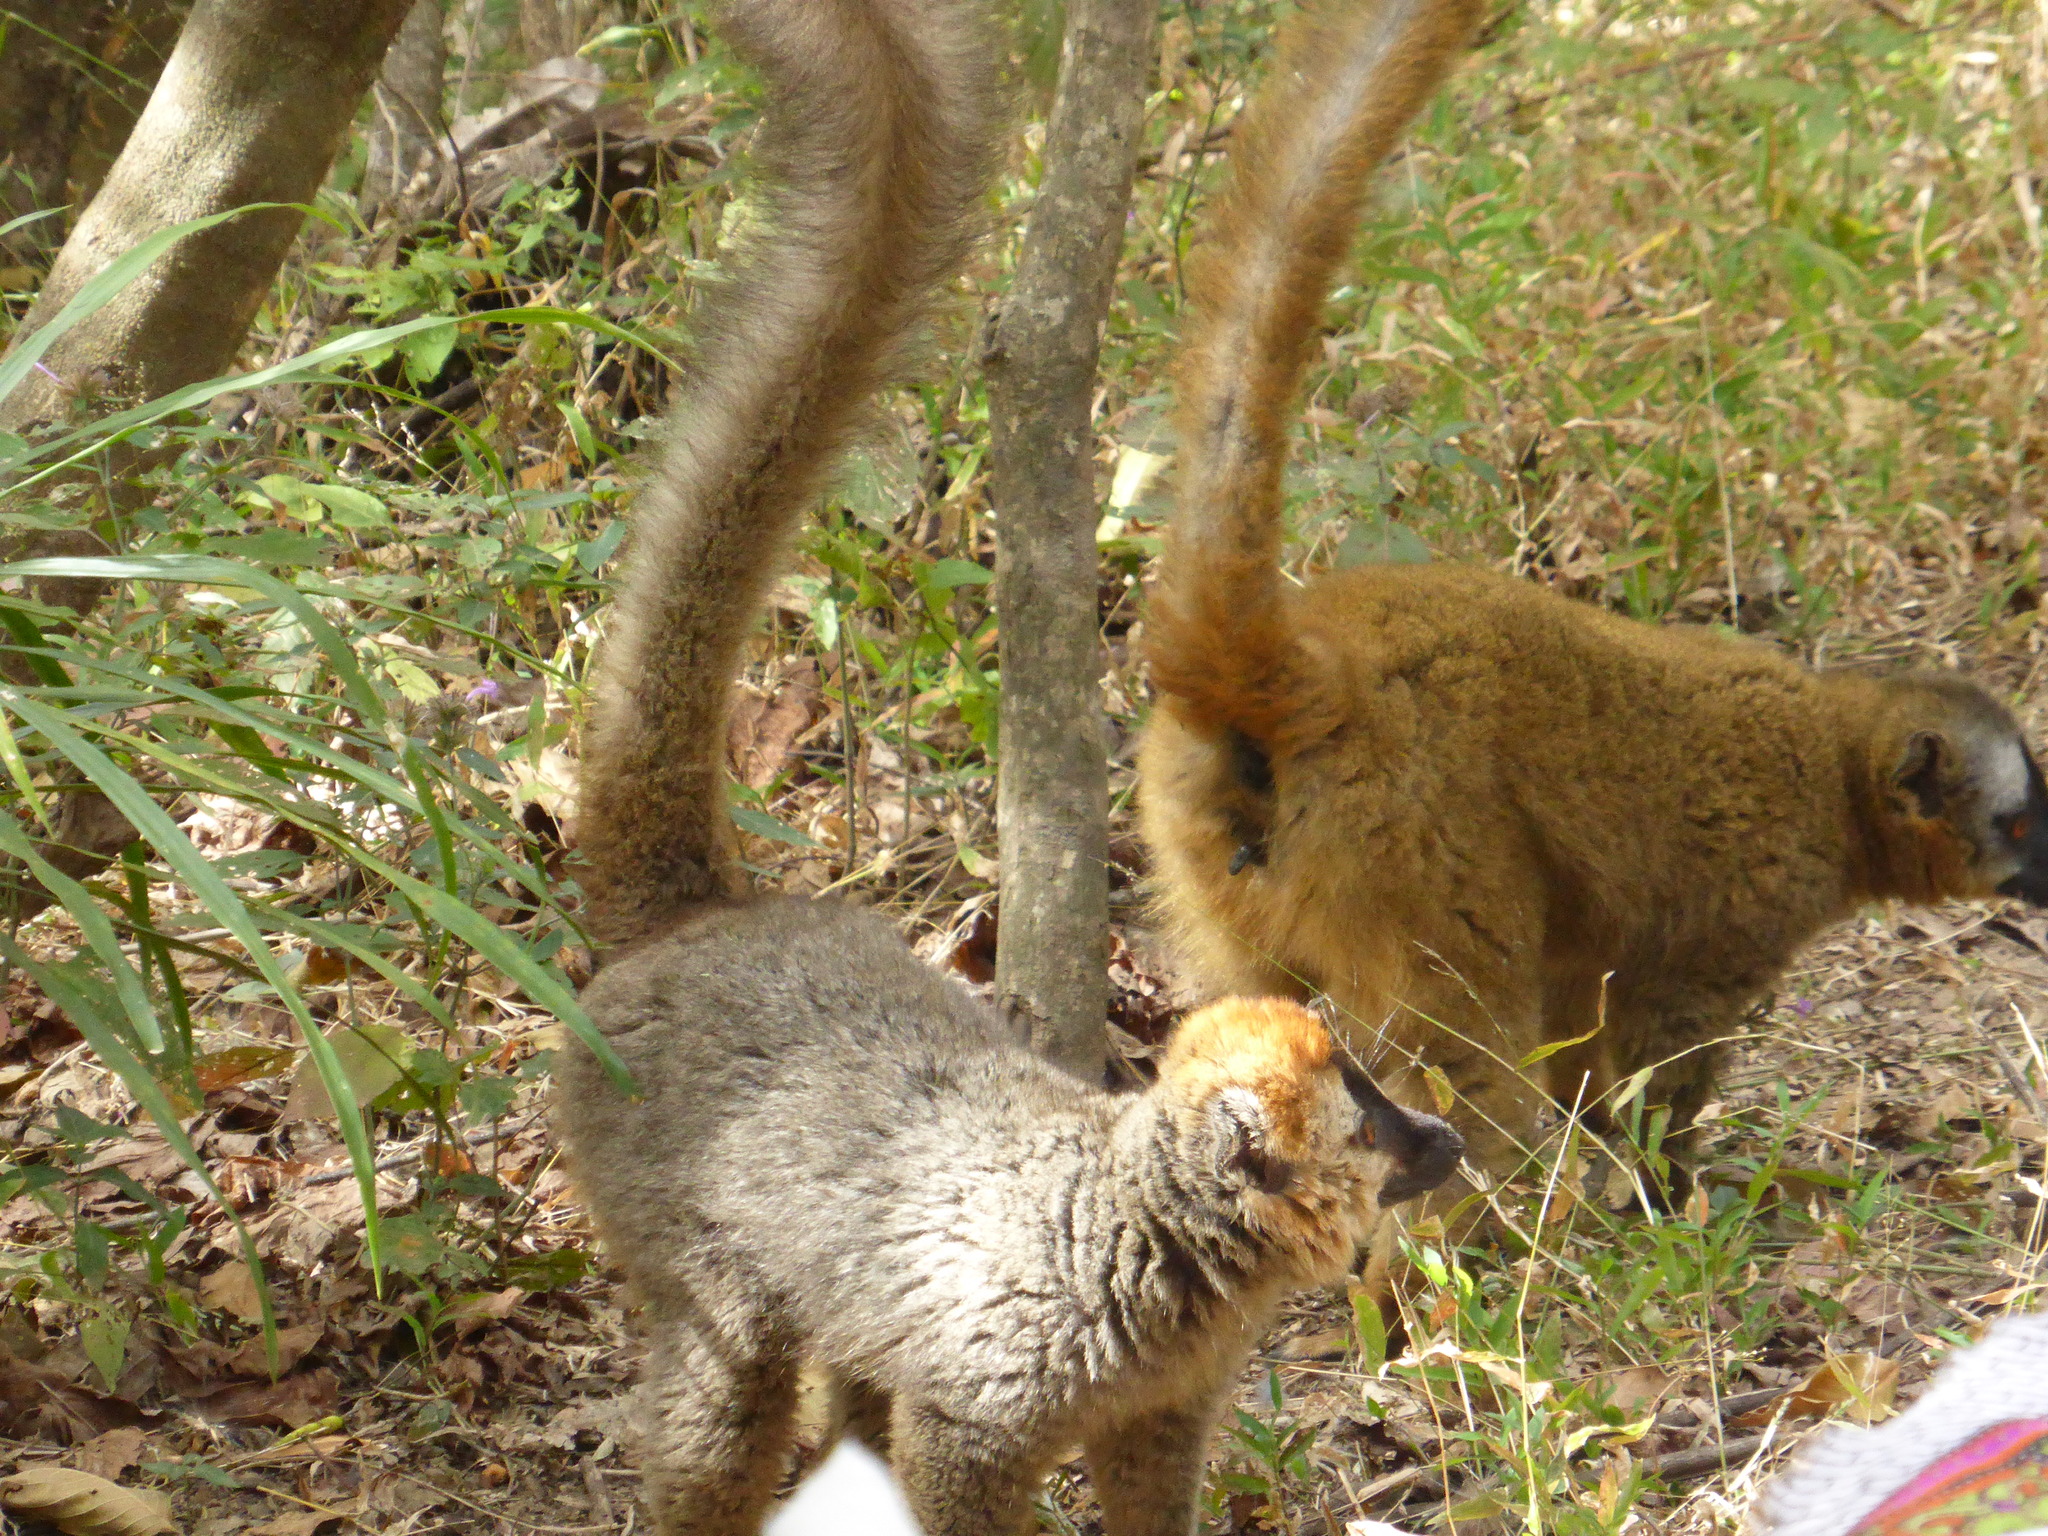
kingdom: Animalia
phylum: Chordata
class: Mammalia
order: Primates
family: Lemuridae
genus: Eulemur
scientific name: Eulemur rufifrons
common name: Red-fronted brown lemur
